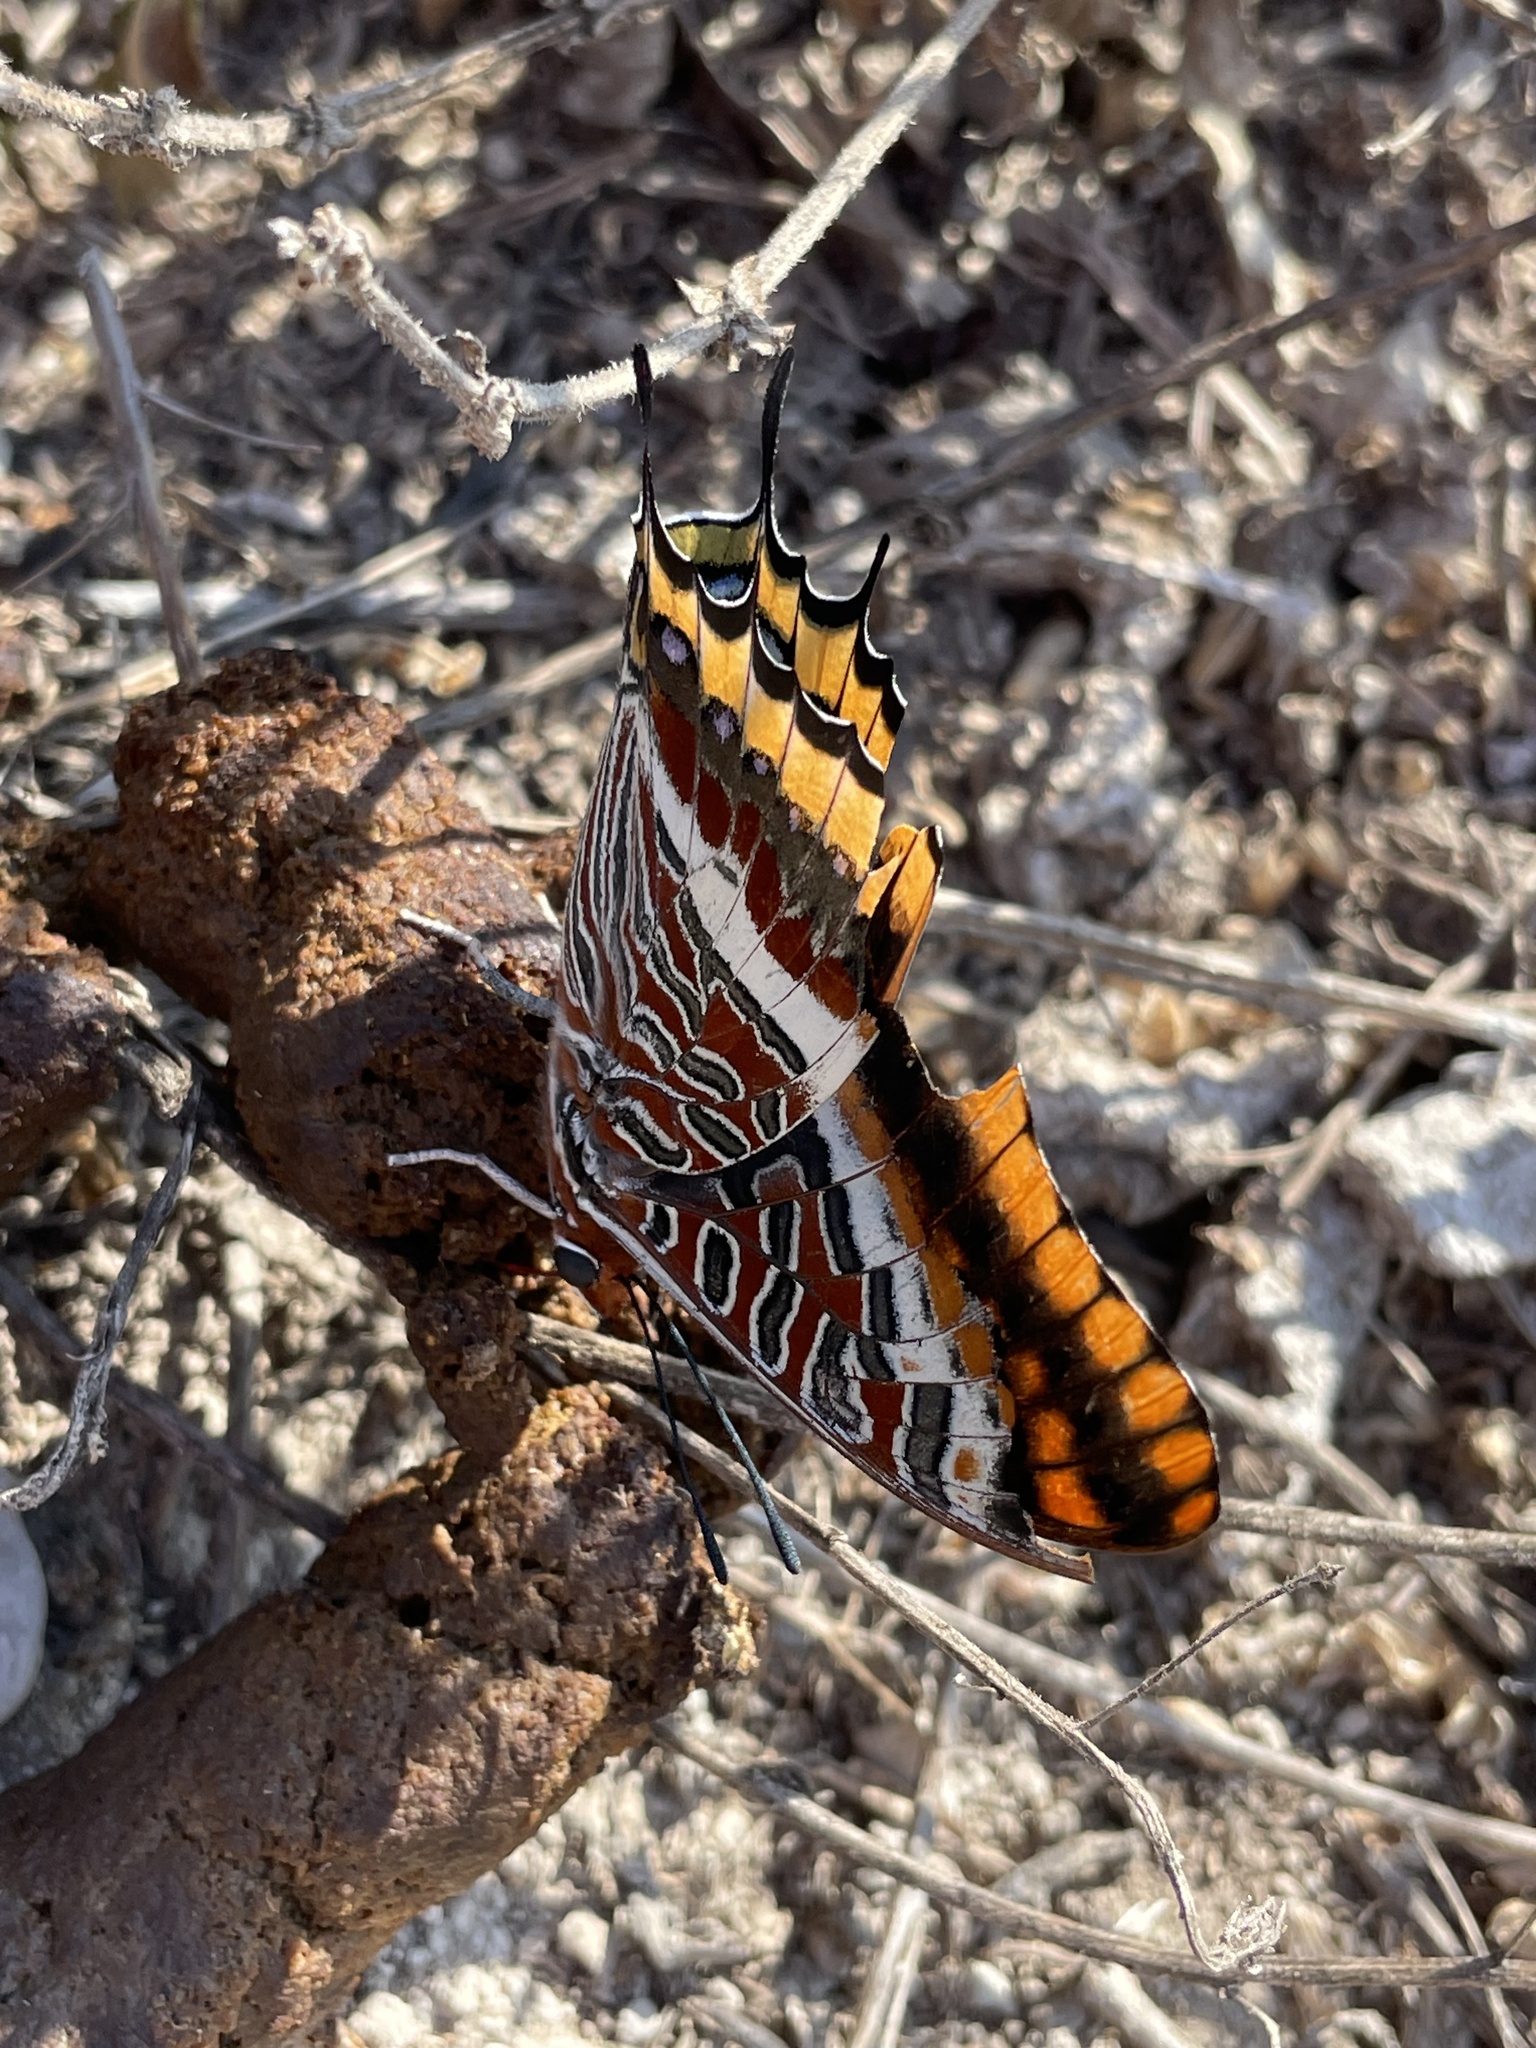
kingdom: Animalia
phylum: Arthropoda
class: Insecta
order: Lepidoptera
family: Nymphalidae
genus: Charaxes
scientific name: Charaxes jasius
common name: Two tailed pasha
